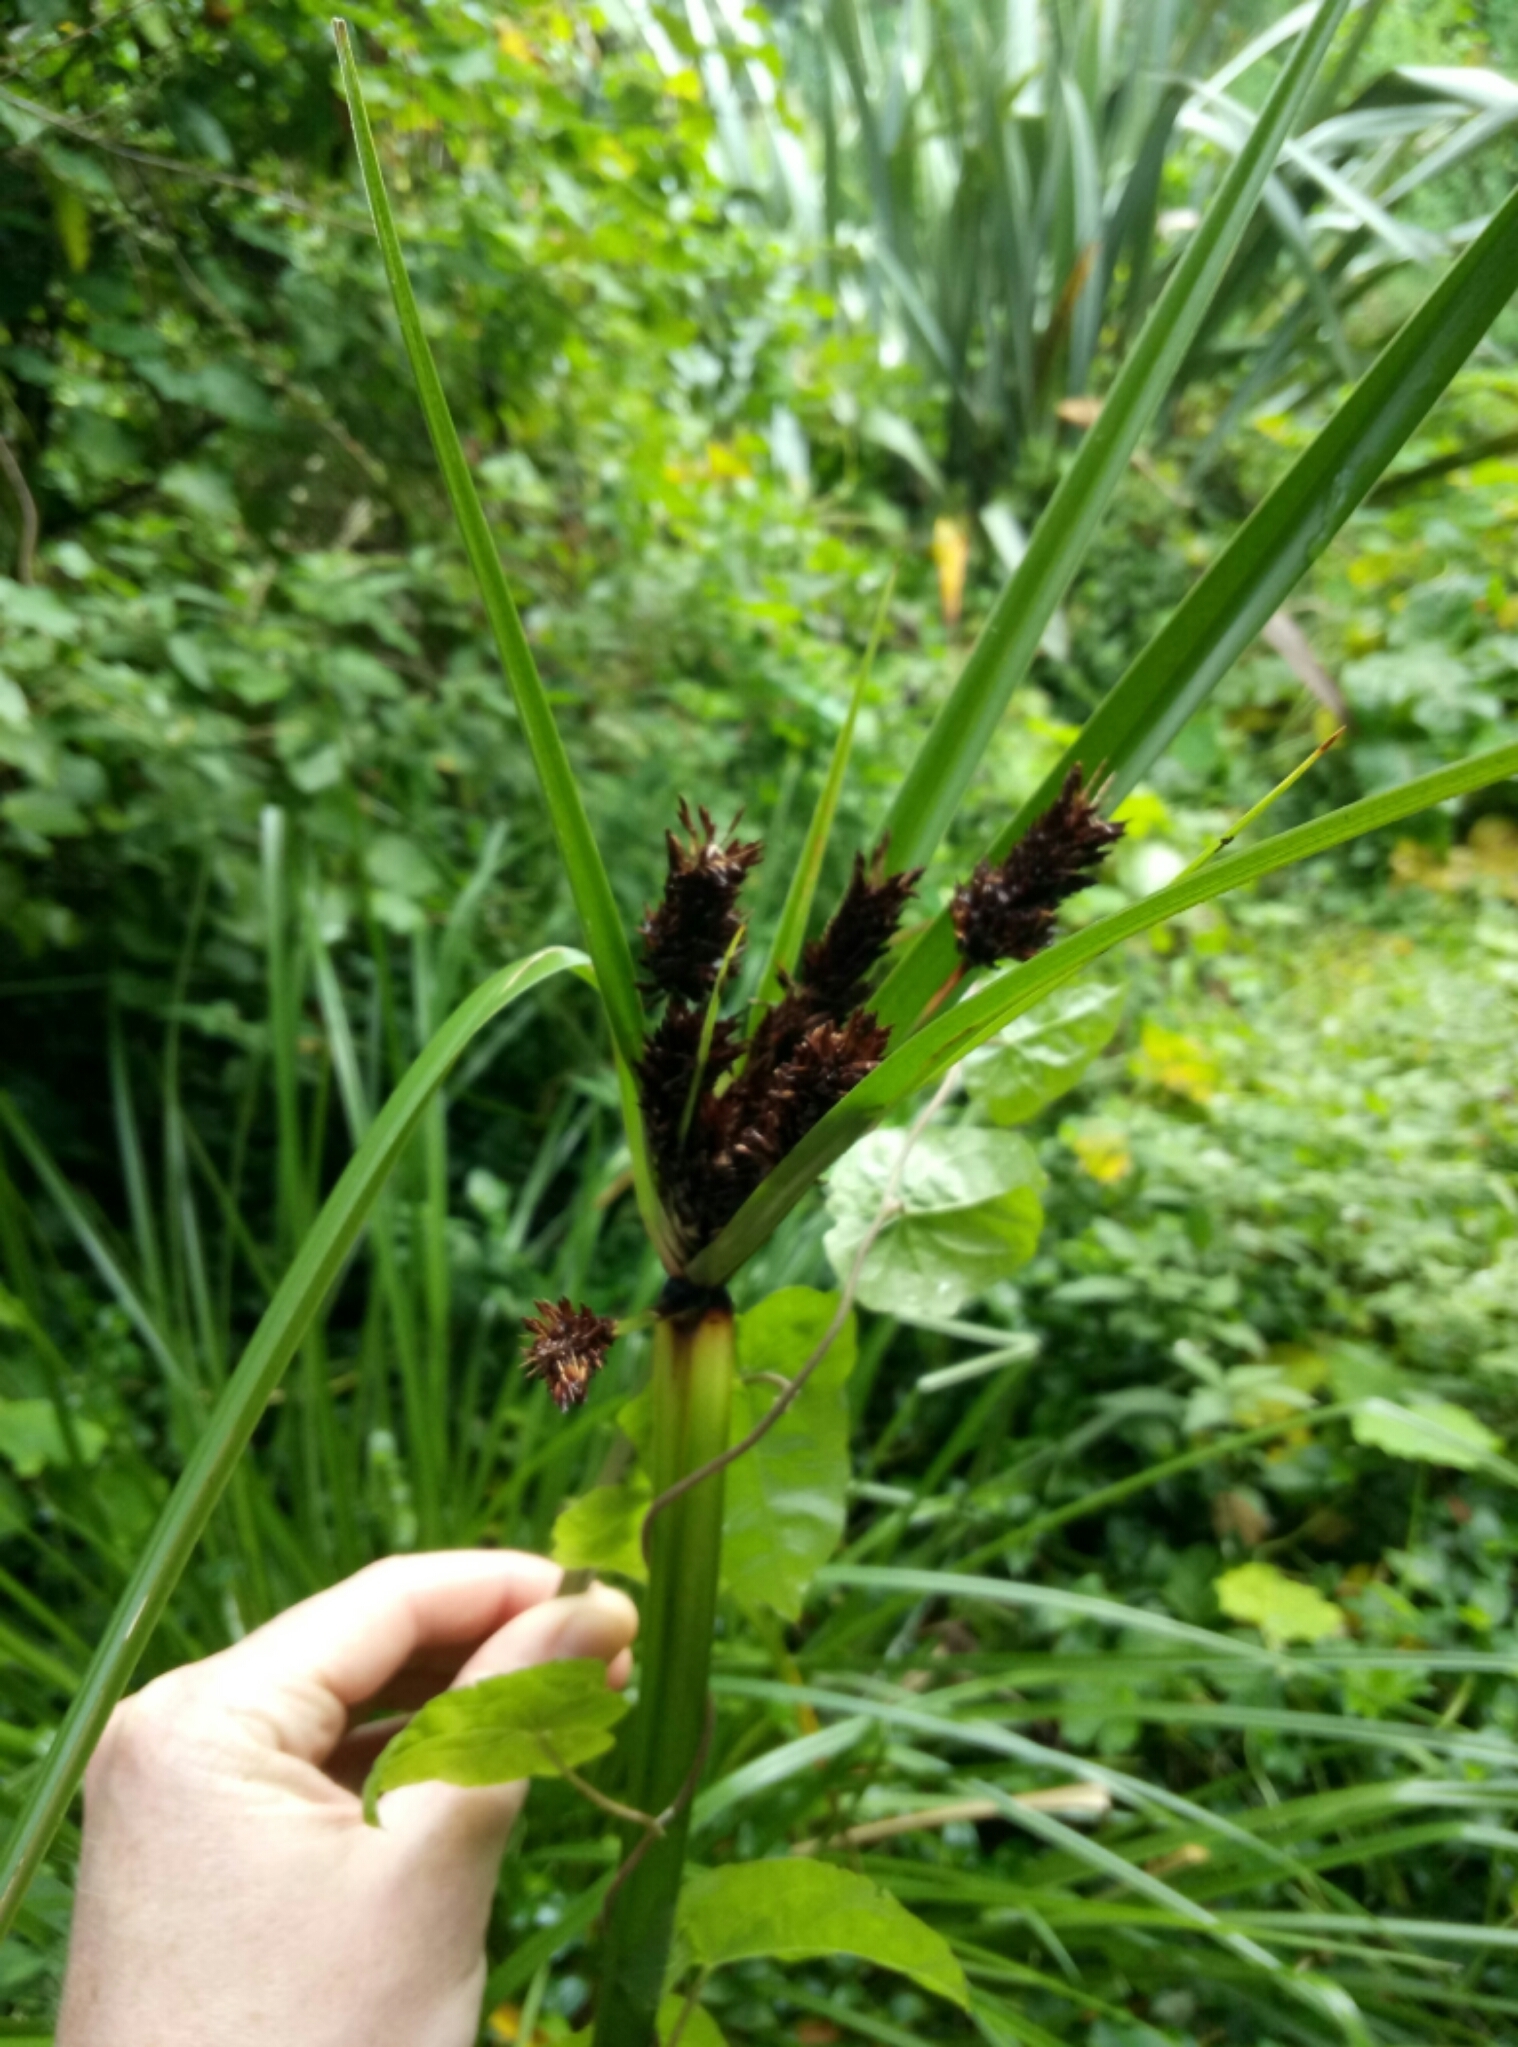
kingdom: Plantae
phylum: Tracheophyta
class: Liliopsida
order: Poales
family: Cyperaceae
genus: Cyperus
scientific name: Cyperus ustulatus
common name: Giant umbrella-sedge
